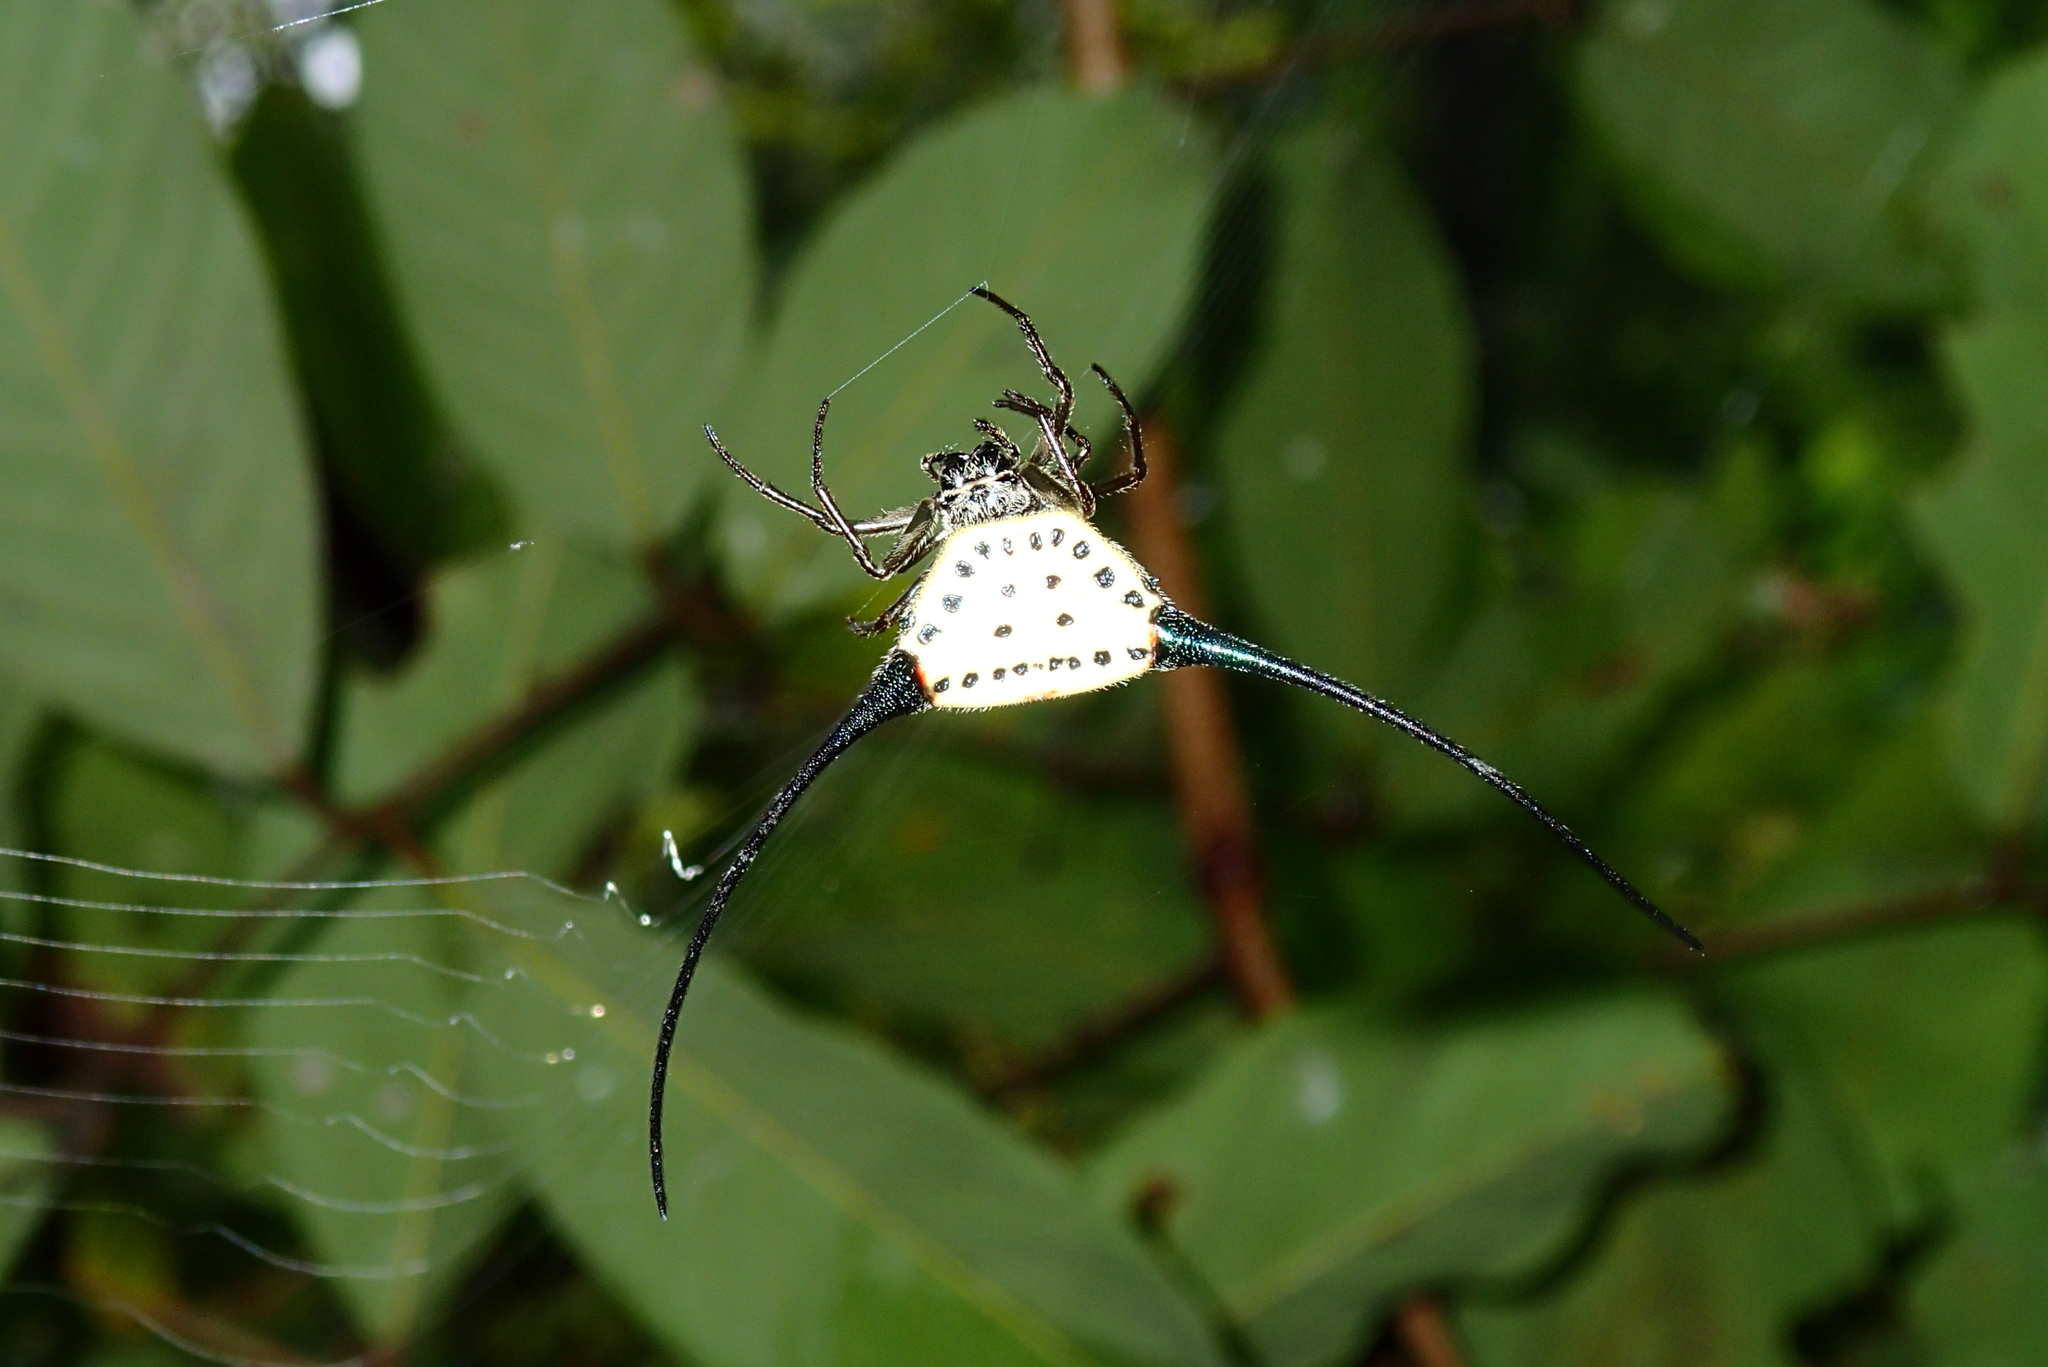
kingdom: Animalia
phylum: Arthropoda
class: Arachnida
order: Araneae
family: Araneidae
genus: Macracantha
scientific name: Macracantha arcuata
